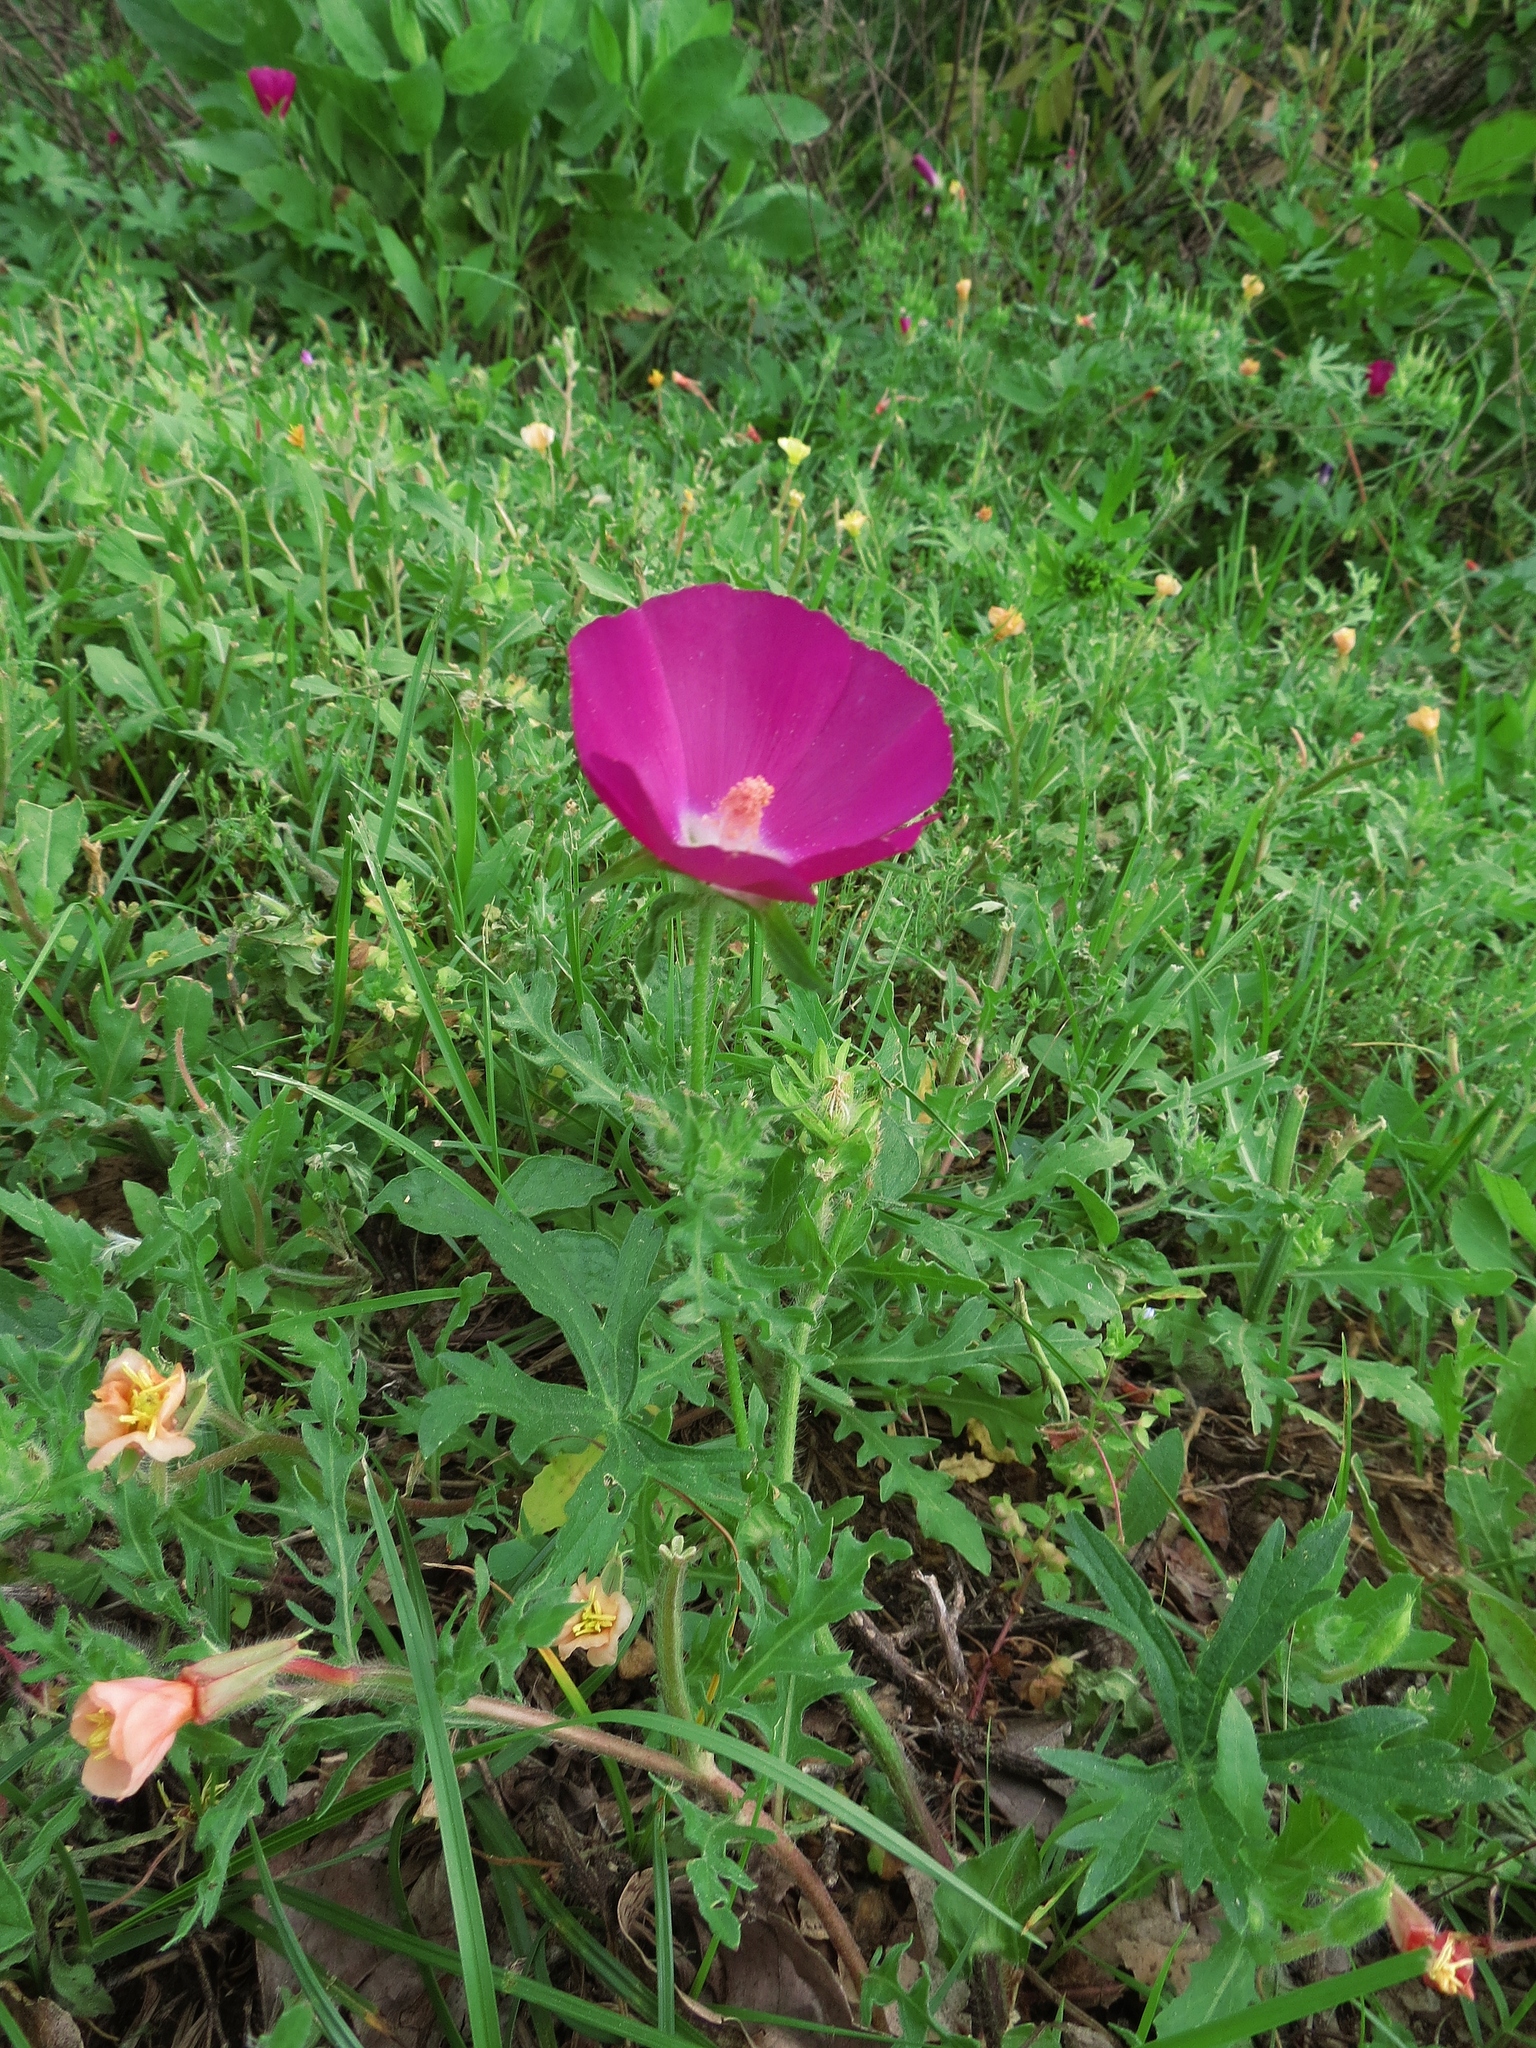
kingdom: Plantae
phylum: Tracheophyta
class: Magnoliopsida
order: Malvales
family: Malvaceae
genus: Callirhoe
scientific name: Callirhoe involucrata
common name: Purple poppy-mallow
